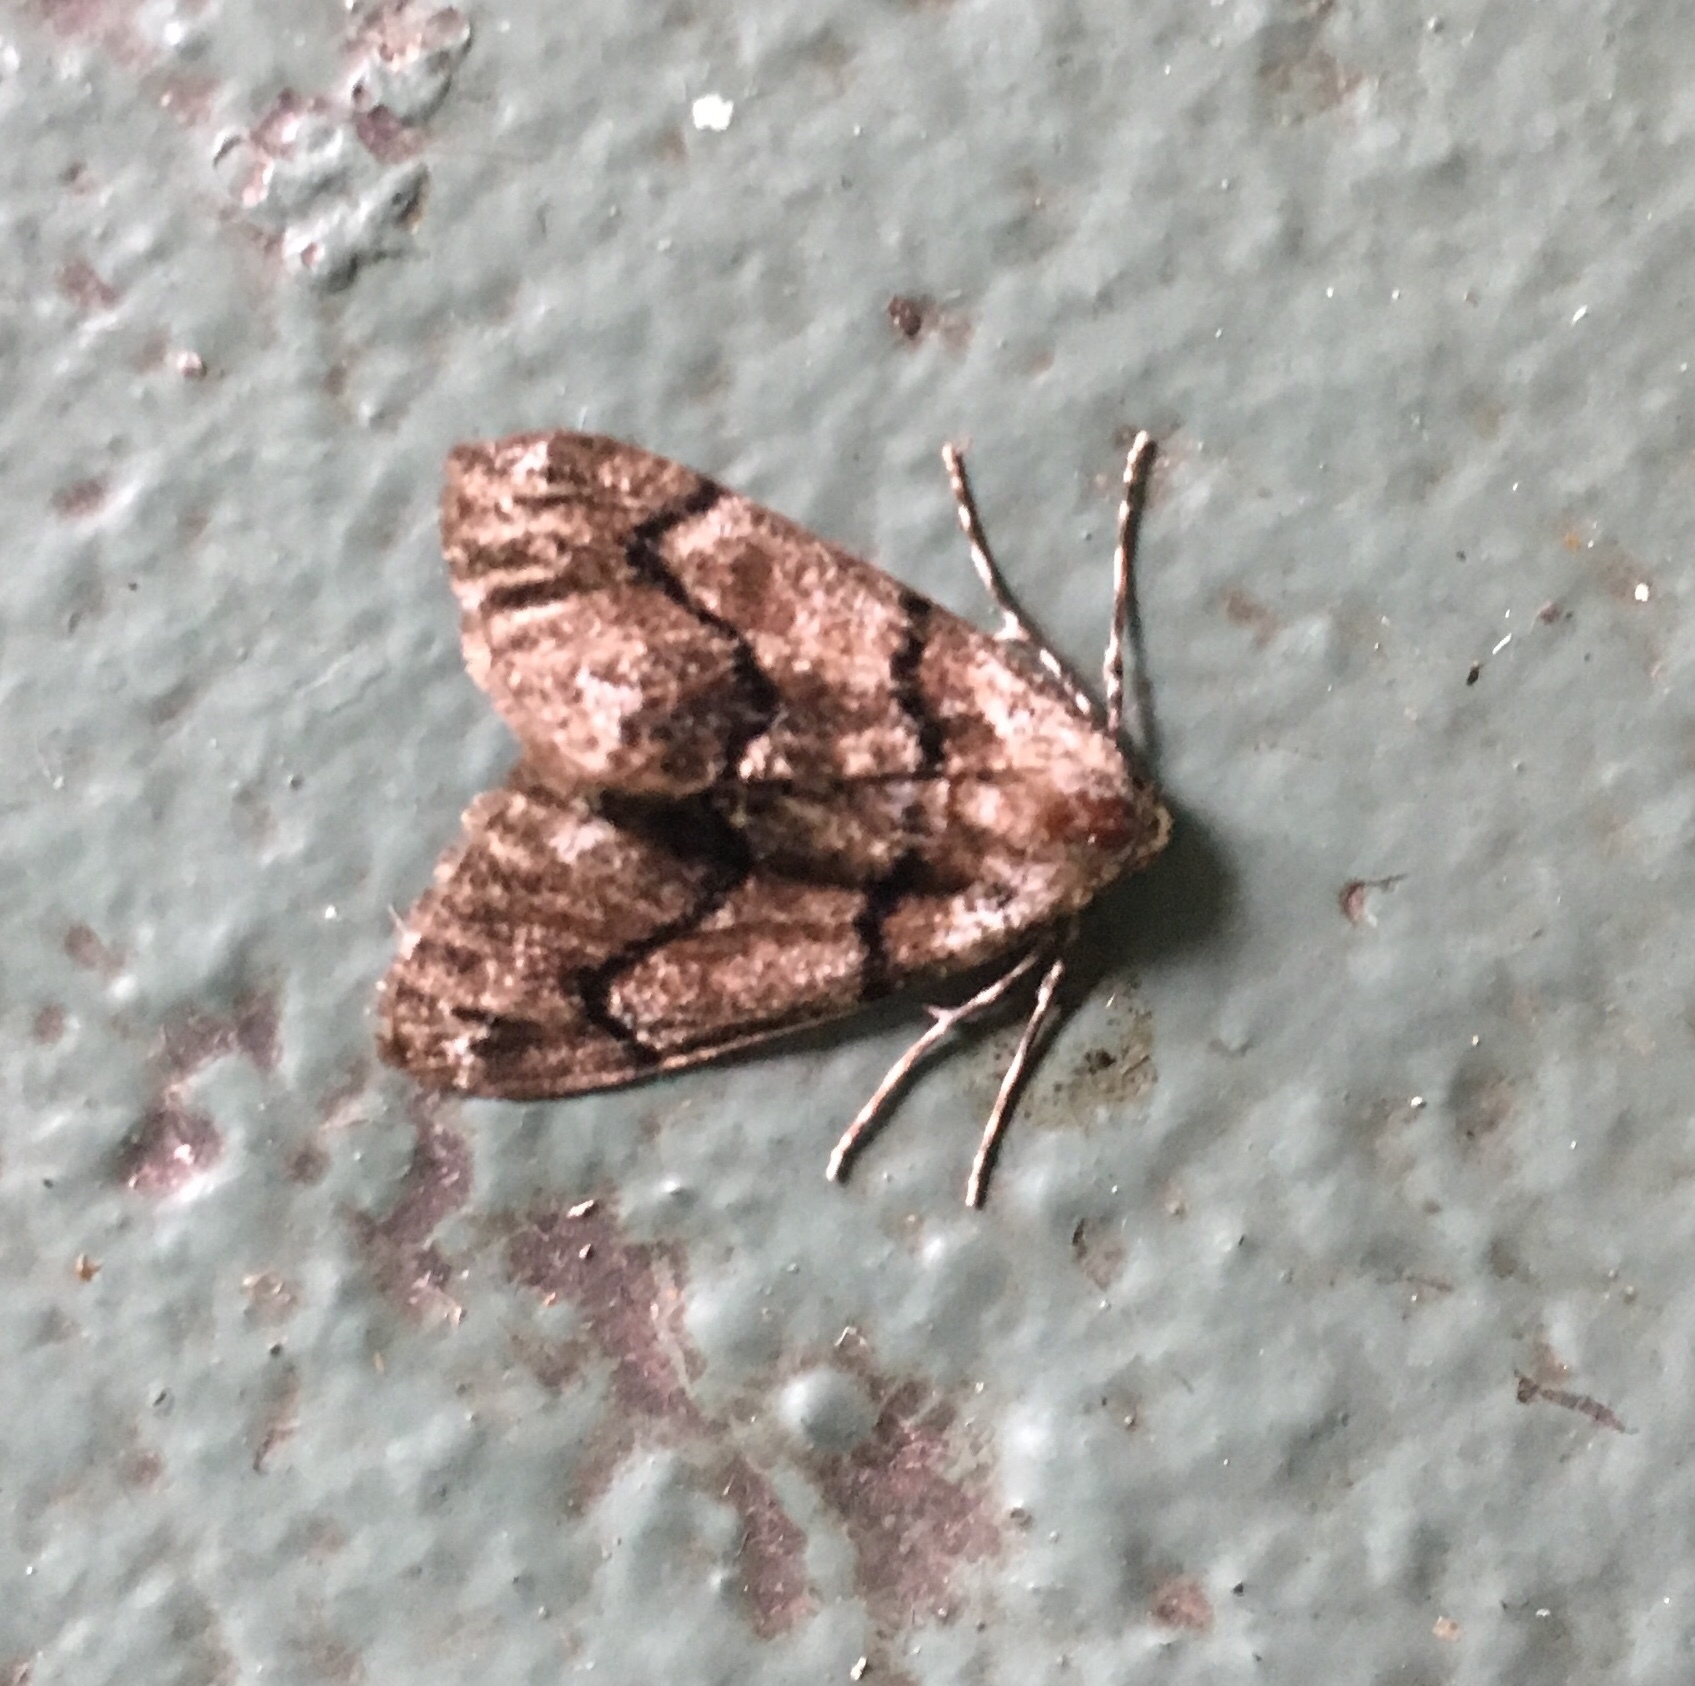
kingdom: Animalia
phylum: Arthropoda
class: Insecta
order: Lepidoptera
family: Geometridae
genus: Gabriola
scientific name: Gabriola dyari
